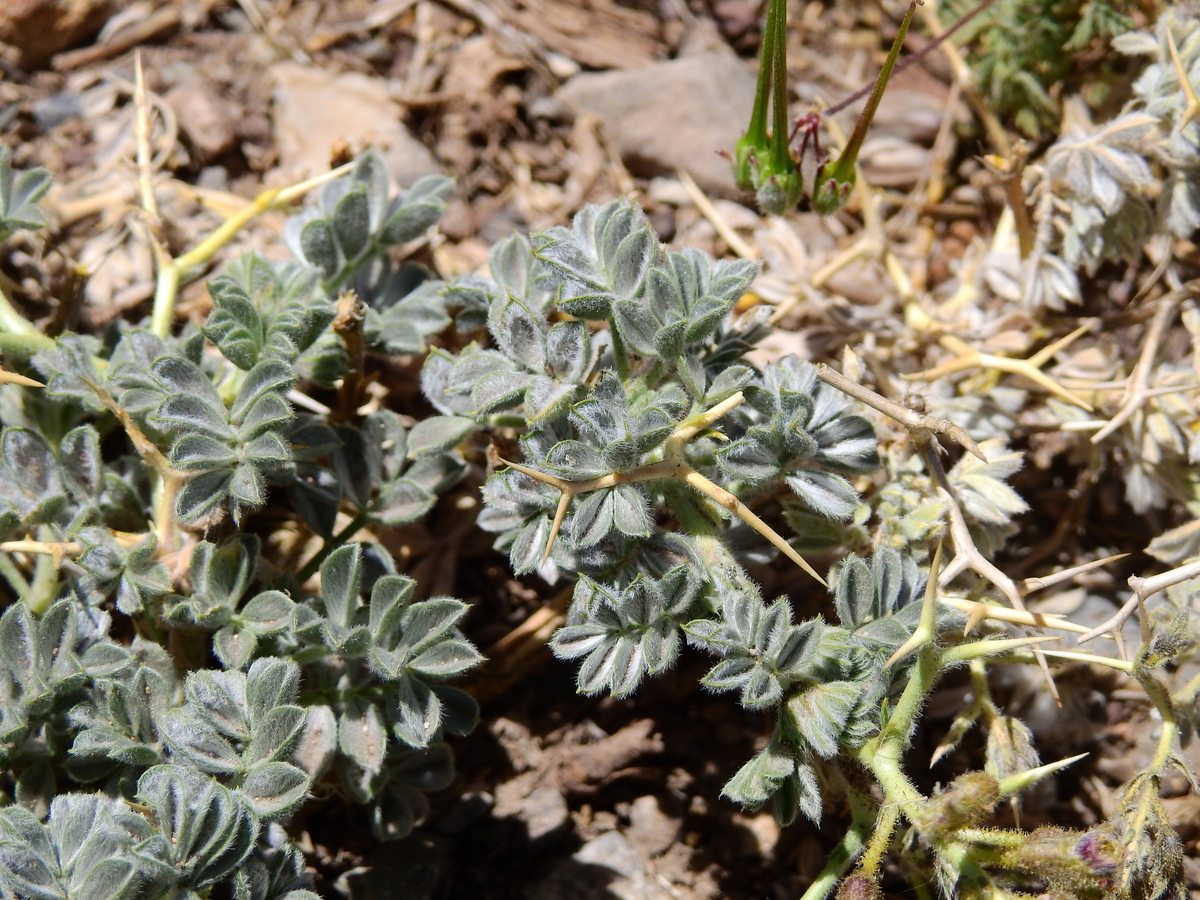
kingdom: Plantae
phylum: Tracheophyta
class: Magnoliopsida
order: Fabales
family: Fabaceae
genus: Adesmia
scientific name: Adesmia echinus
